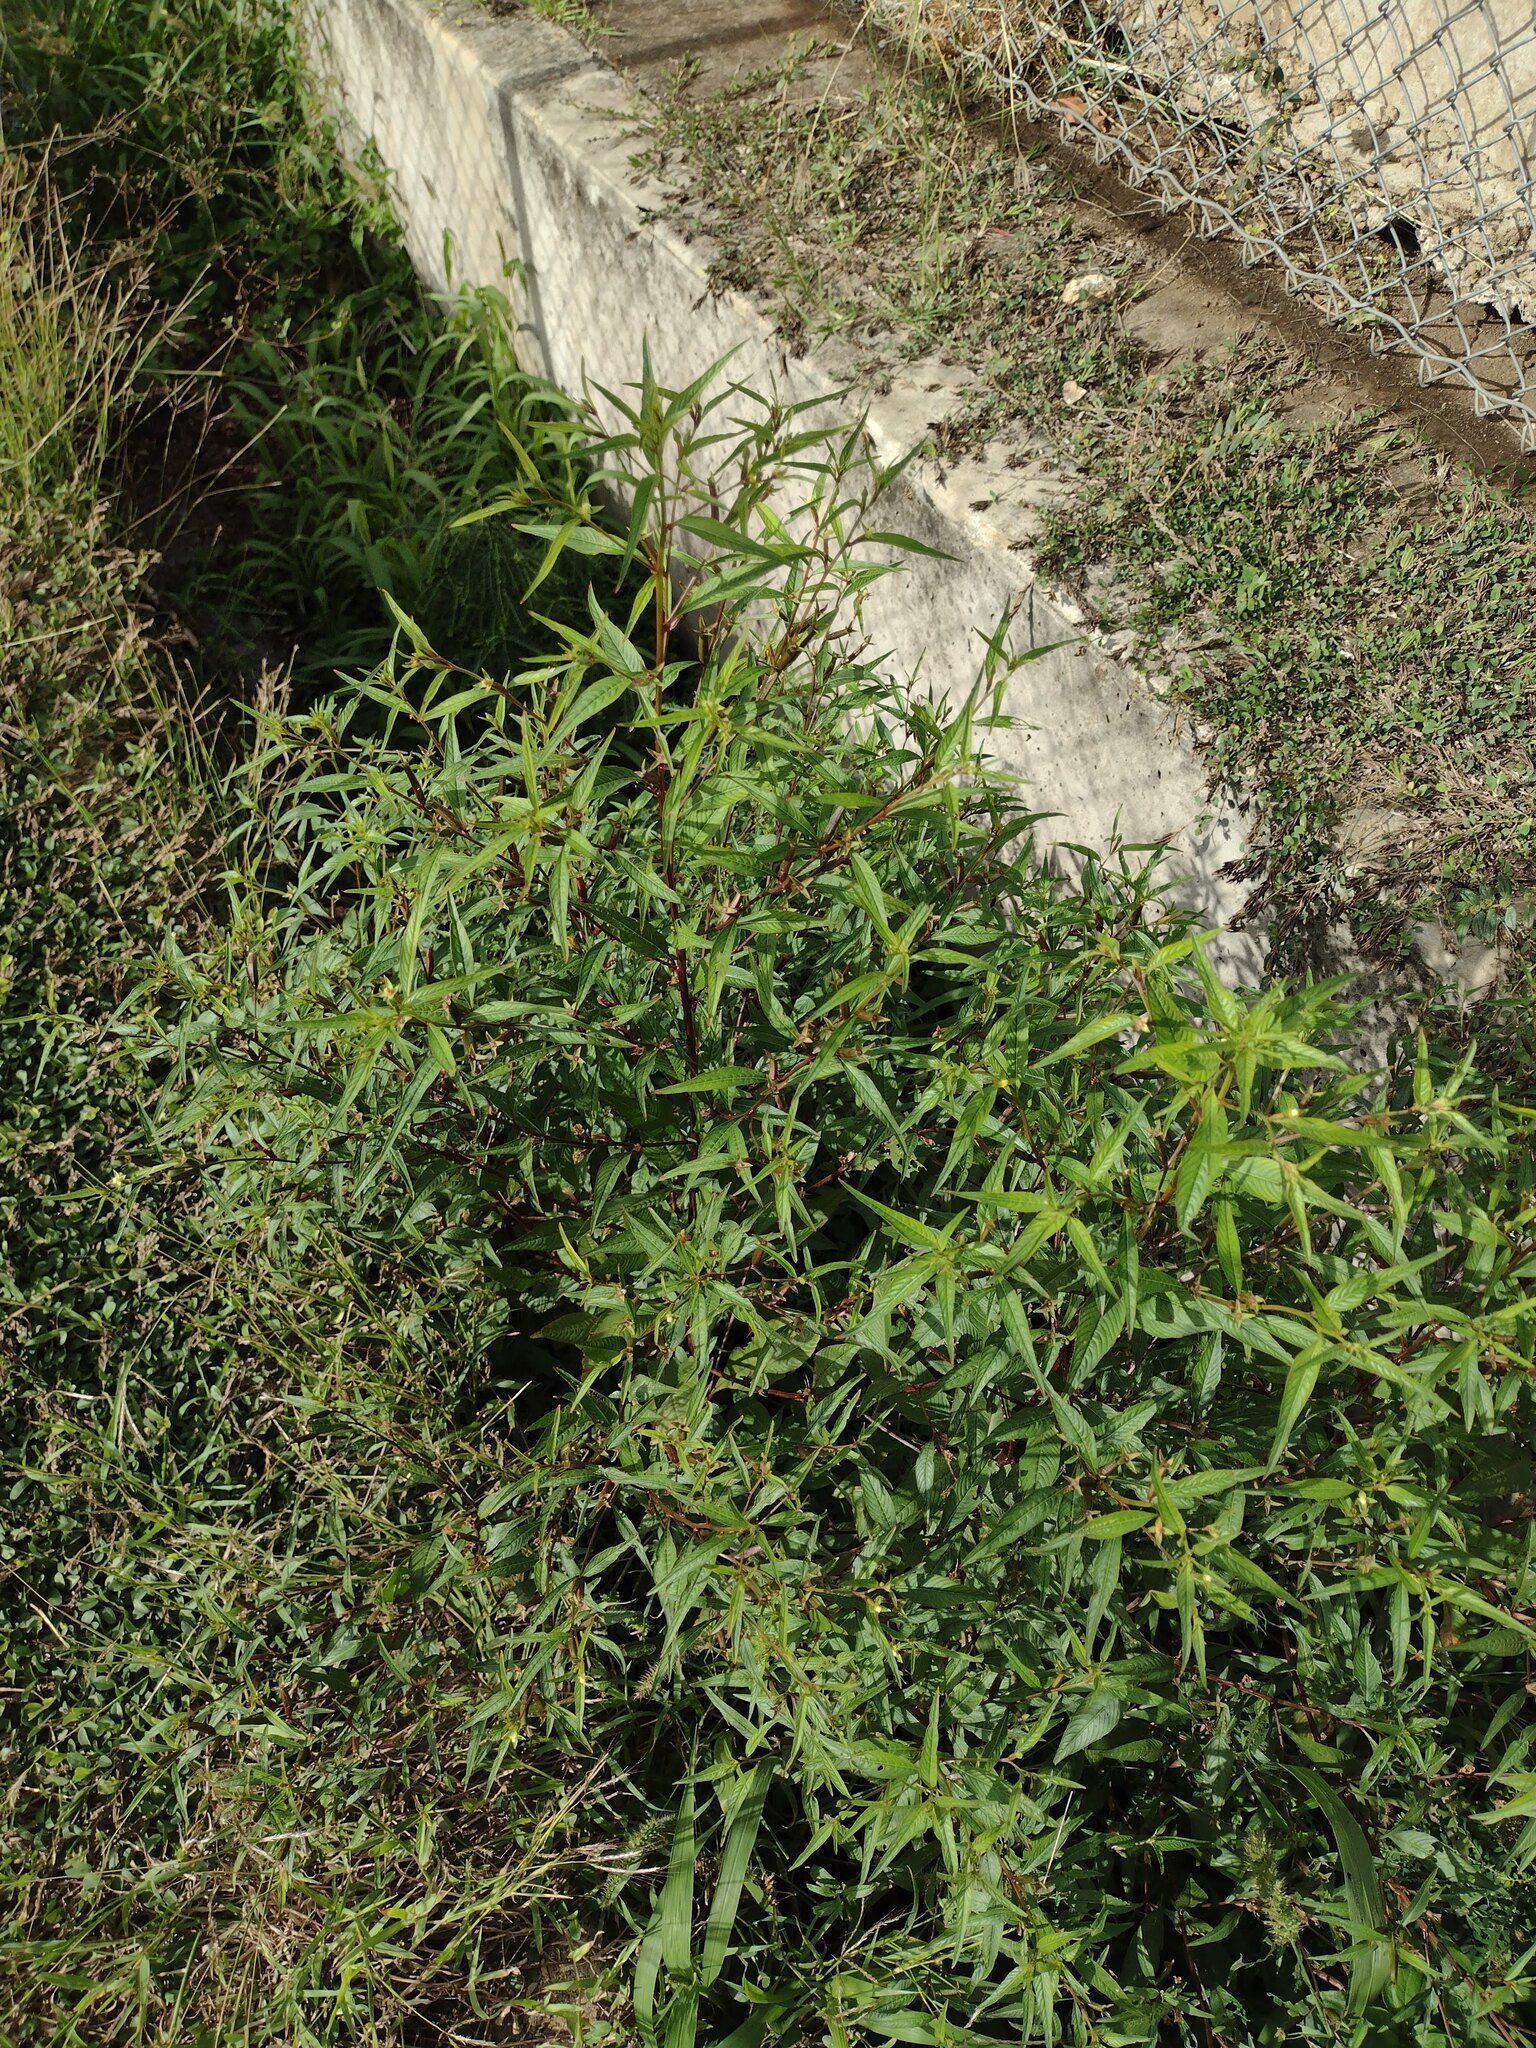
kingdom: Plantae
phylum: Tracheophyta
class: Magnoliopsida
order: Myrtales
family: Onagraceae
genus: Ludwigia
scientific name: Ludwigia erecta
